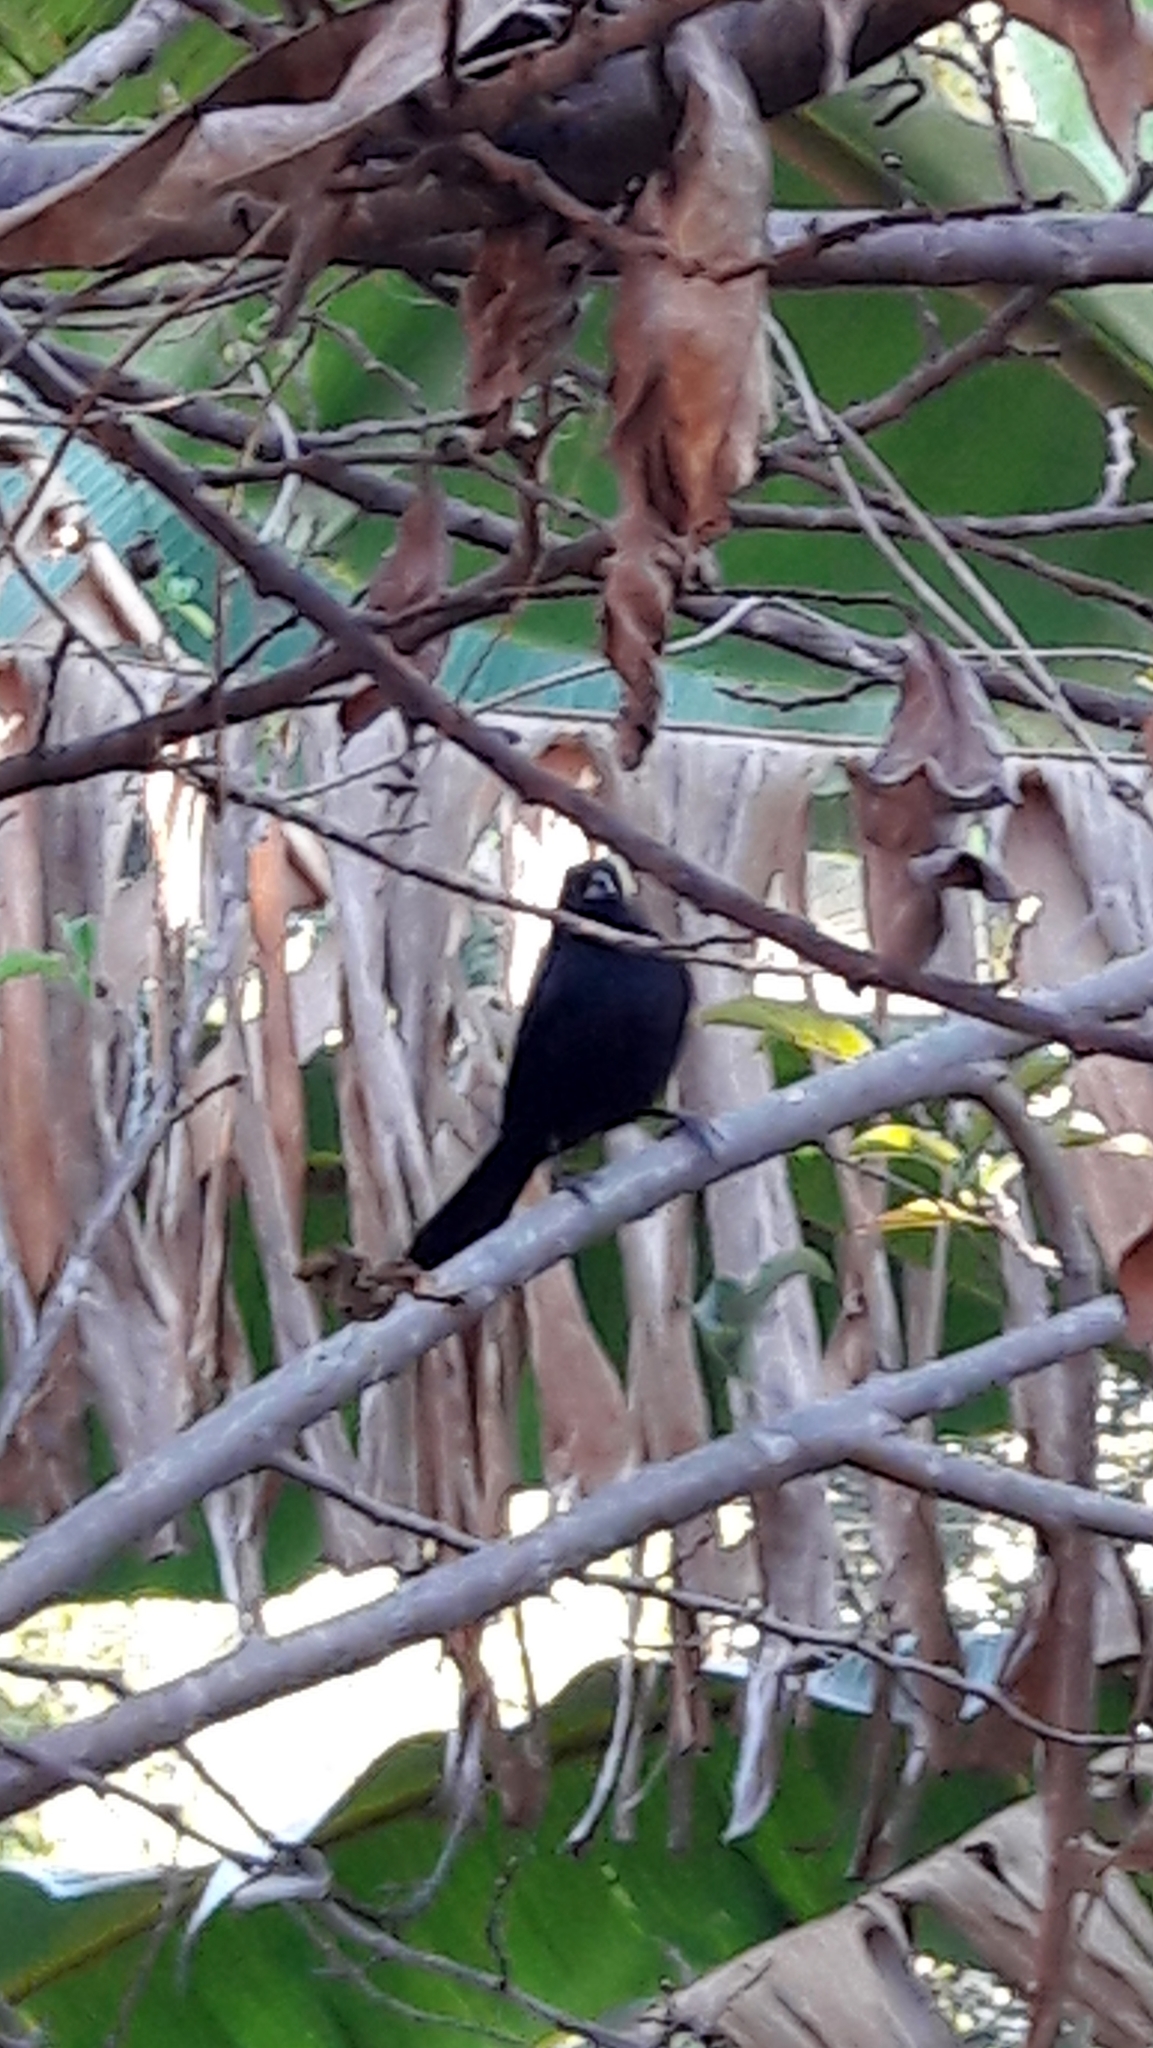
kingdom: Animalia
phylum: Chordata
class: Aves
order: Passeriformes
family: Thraupidae
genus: Tachyphonus
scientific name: Tachyphonus rufus
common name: White-lined tanager
